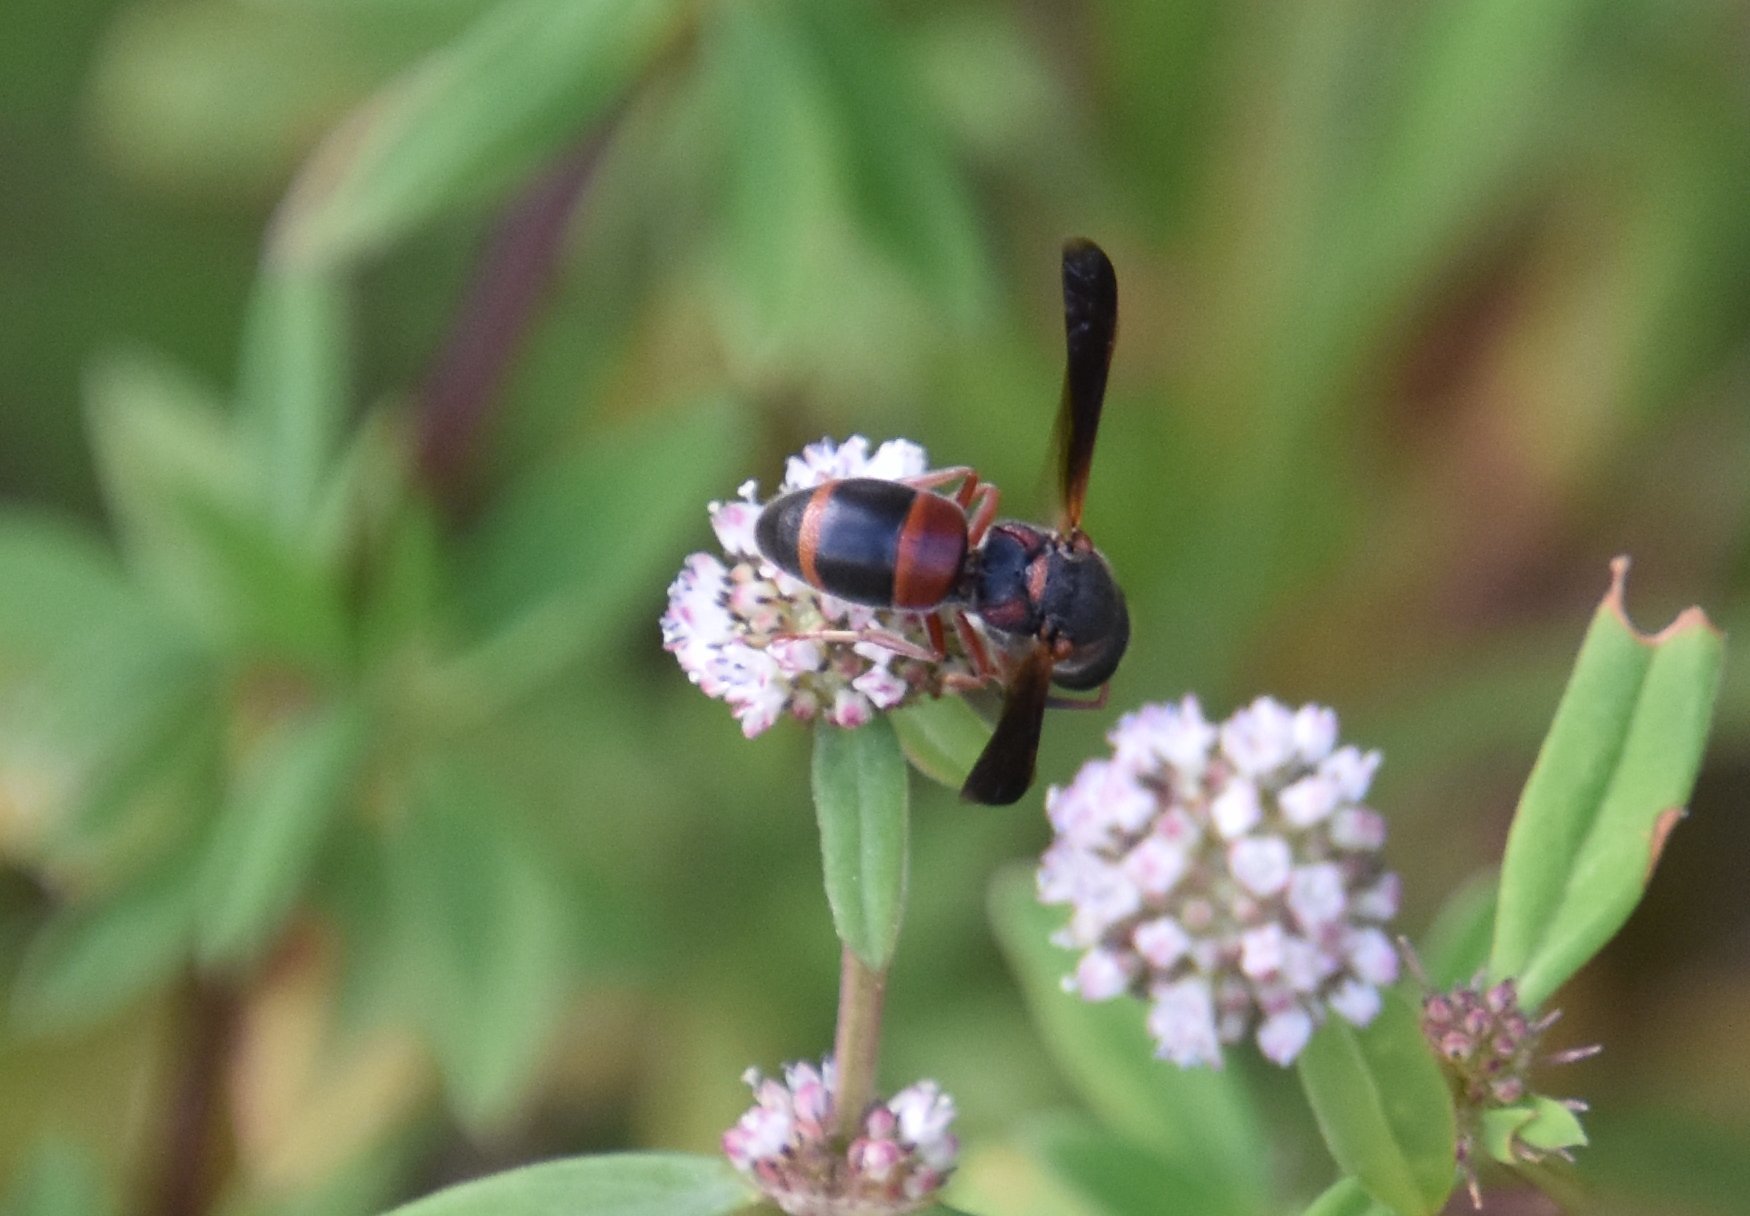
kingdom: Animalia
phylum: Arthropoda
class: Insecta
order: Hymenoptera
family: Eumenidae
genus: Pachodynerus
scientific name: Pachodynerus erynnis
